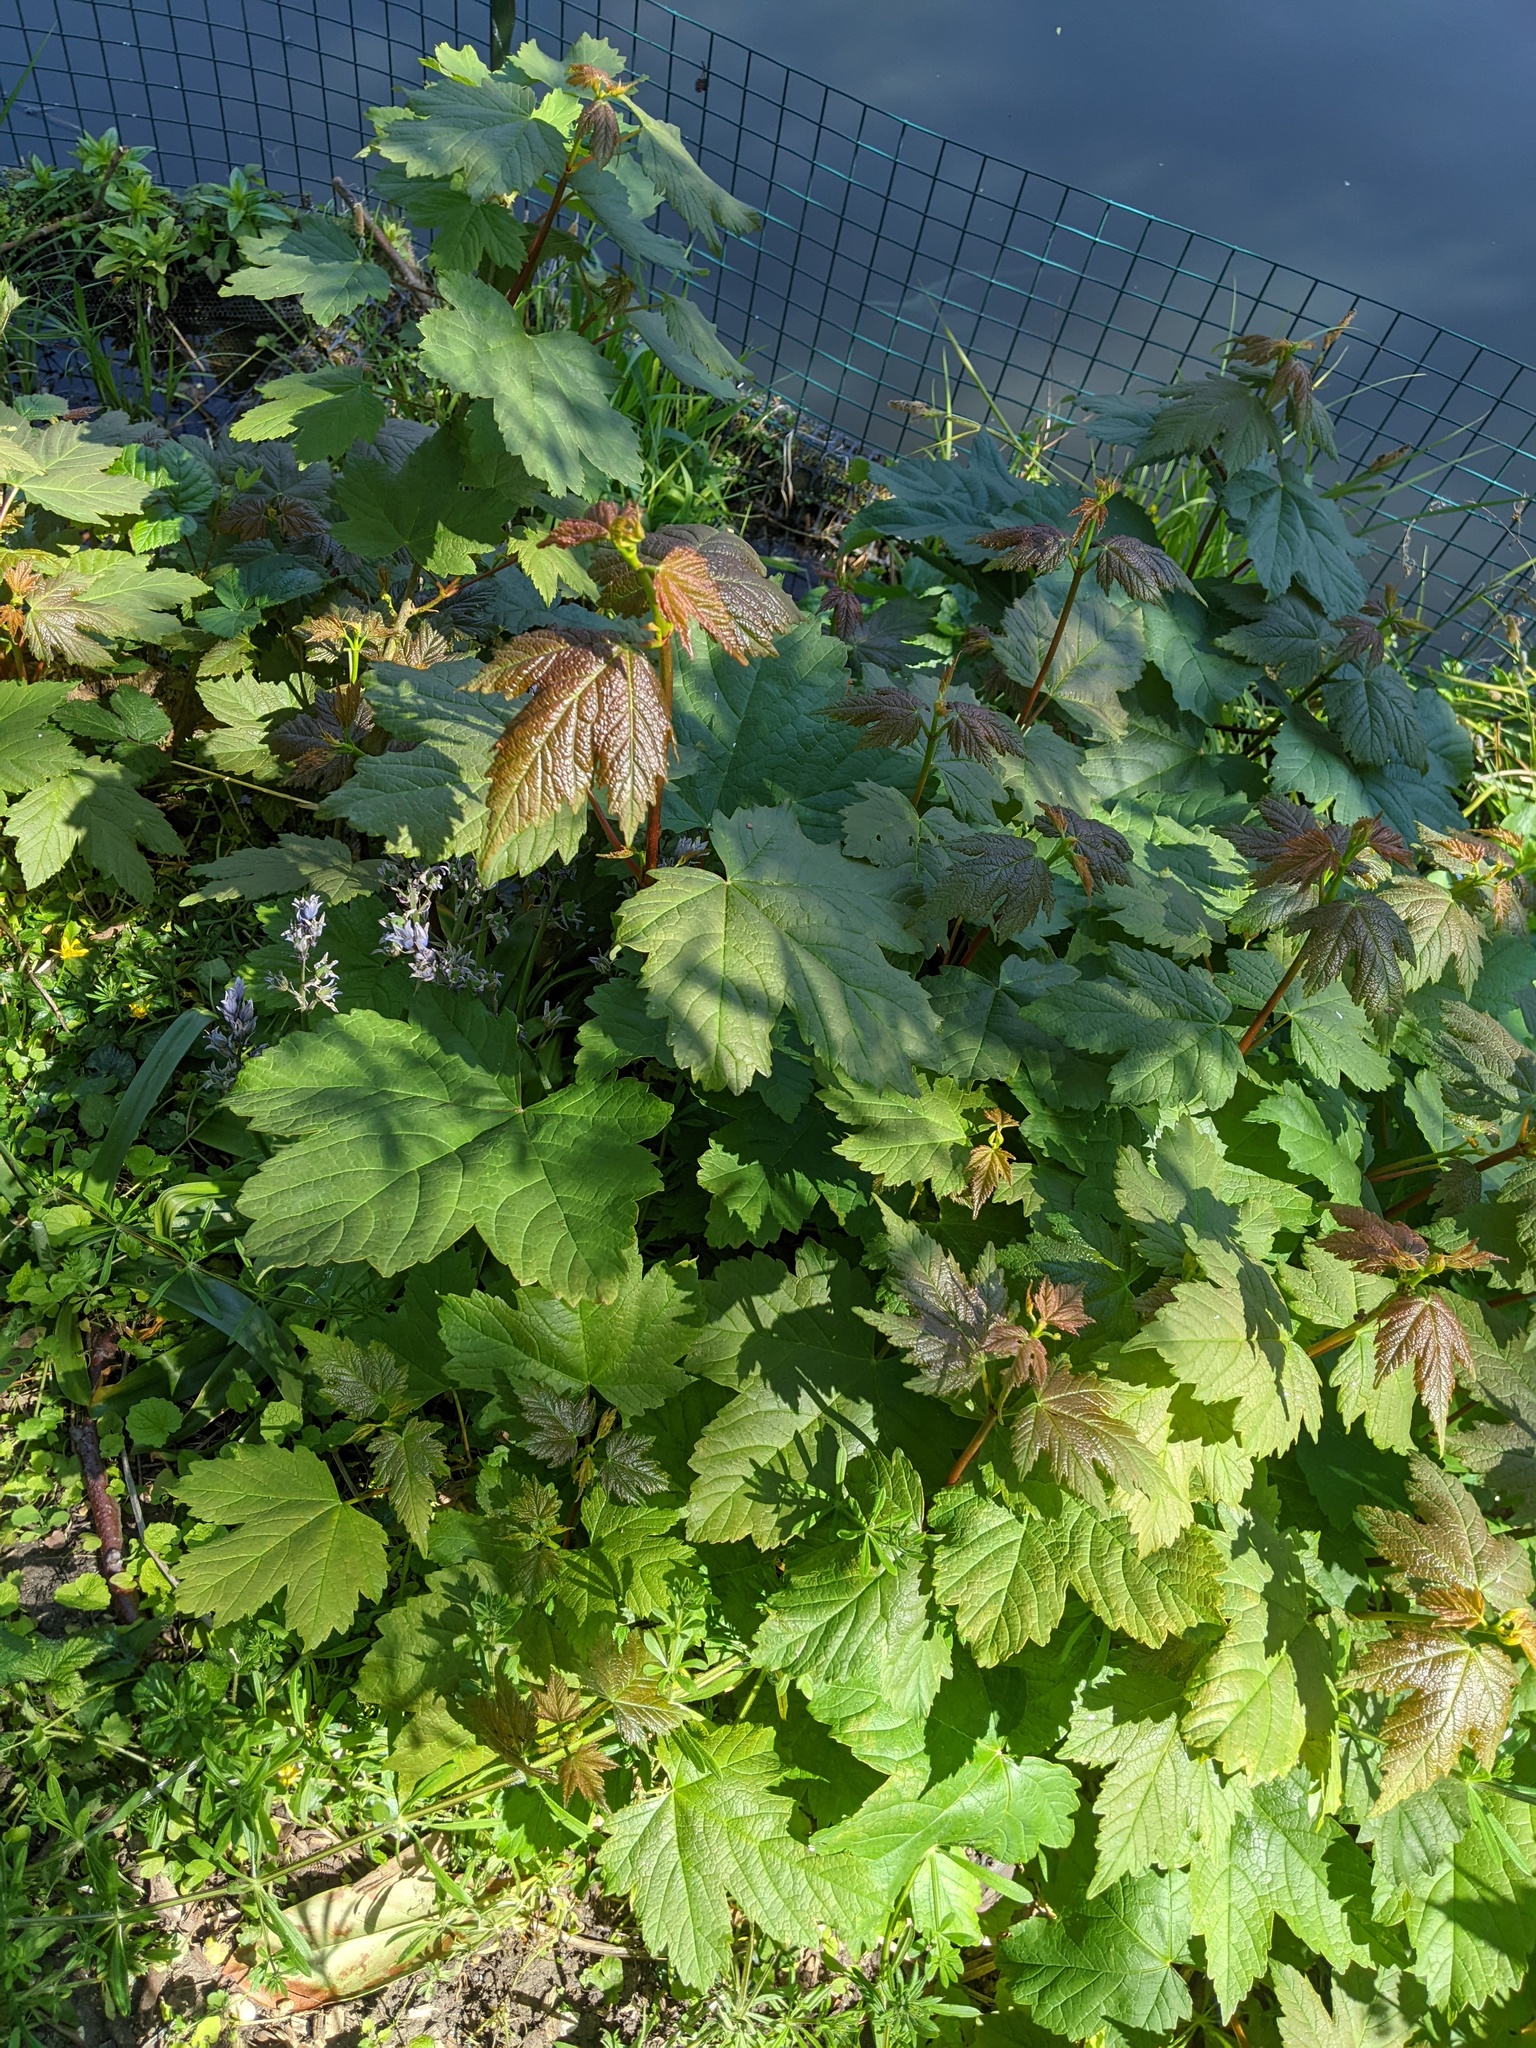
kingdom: Plantae
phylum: Tracheophyta
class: Magnoliopsida
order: Sapindales
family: Sapindaceae
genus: Acer
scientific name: Acer pseudoplatanus
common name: Sycamore
